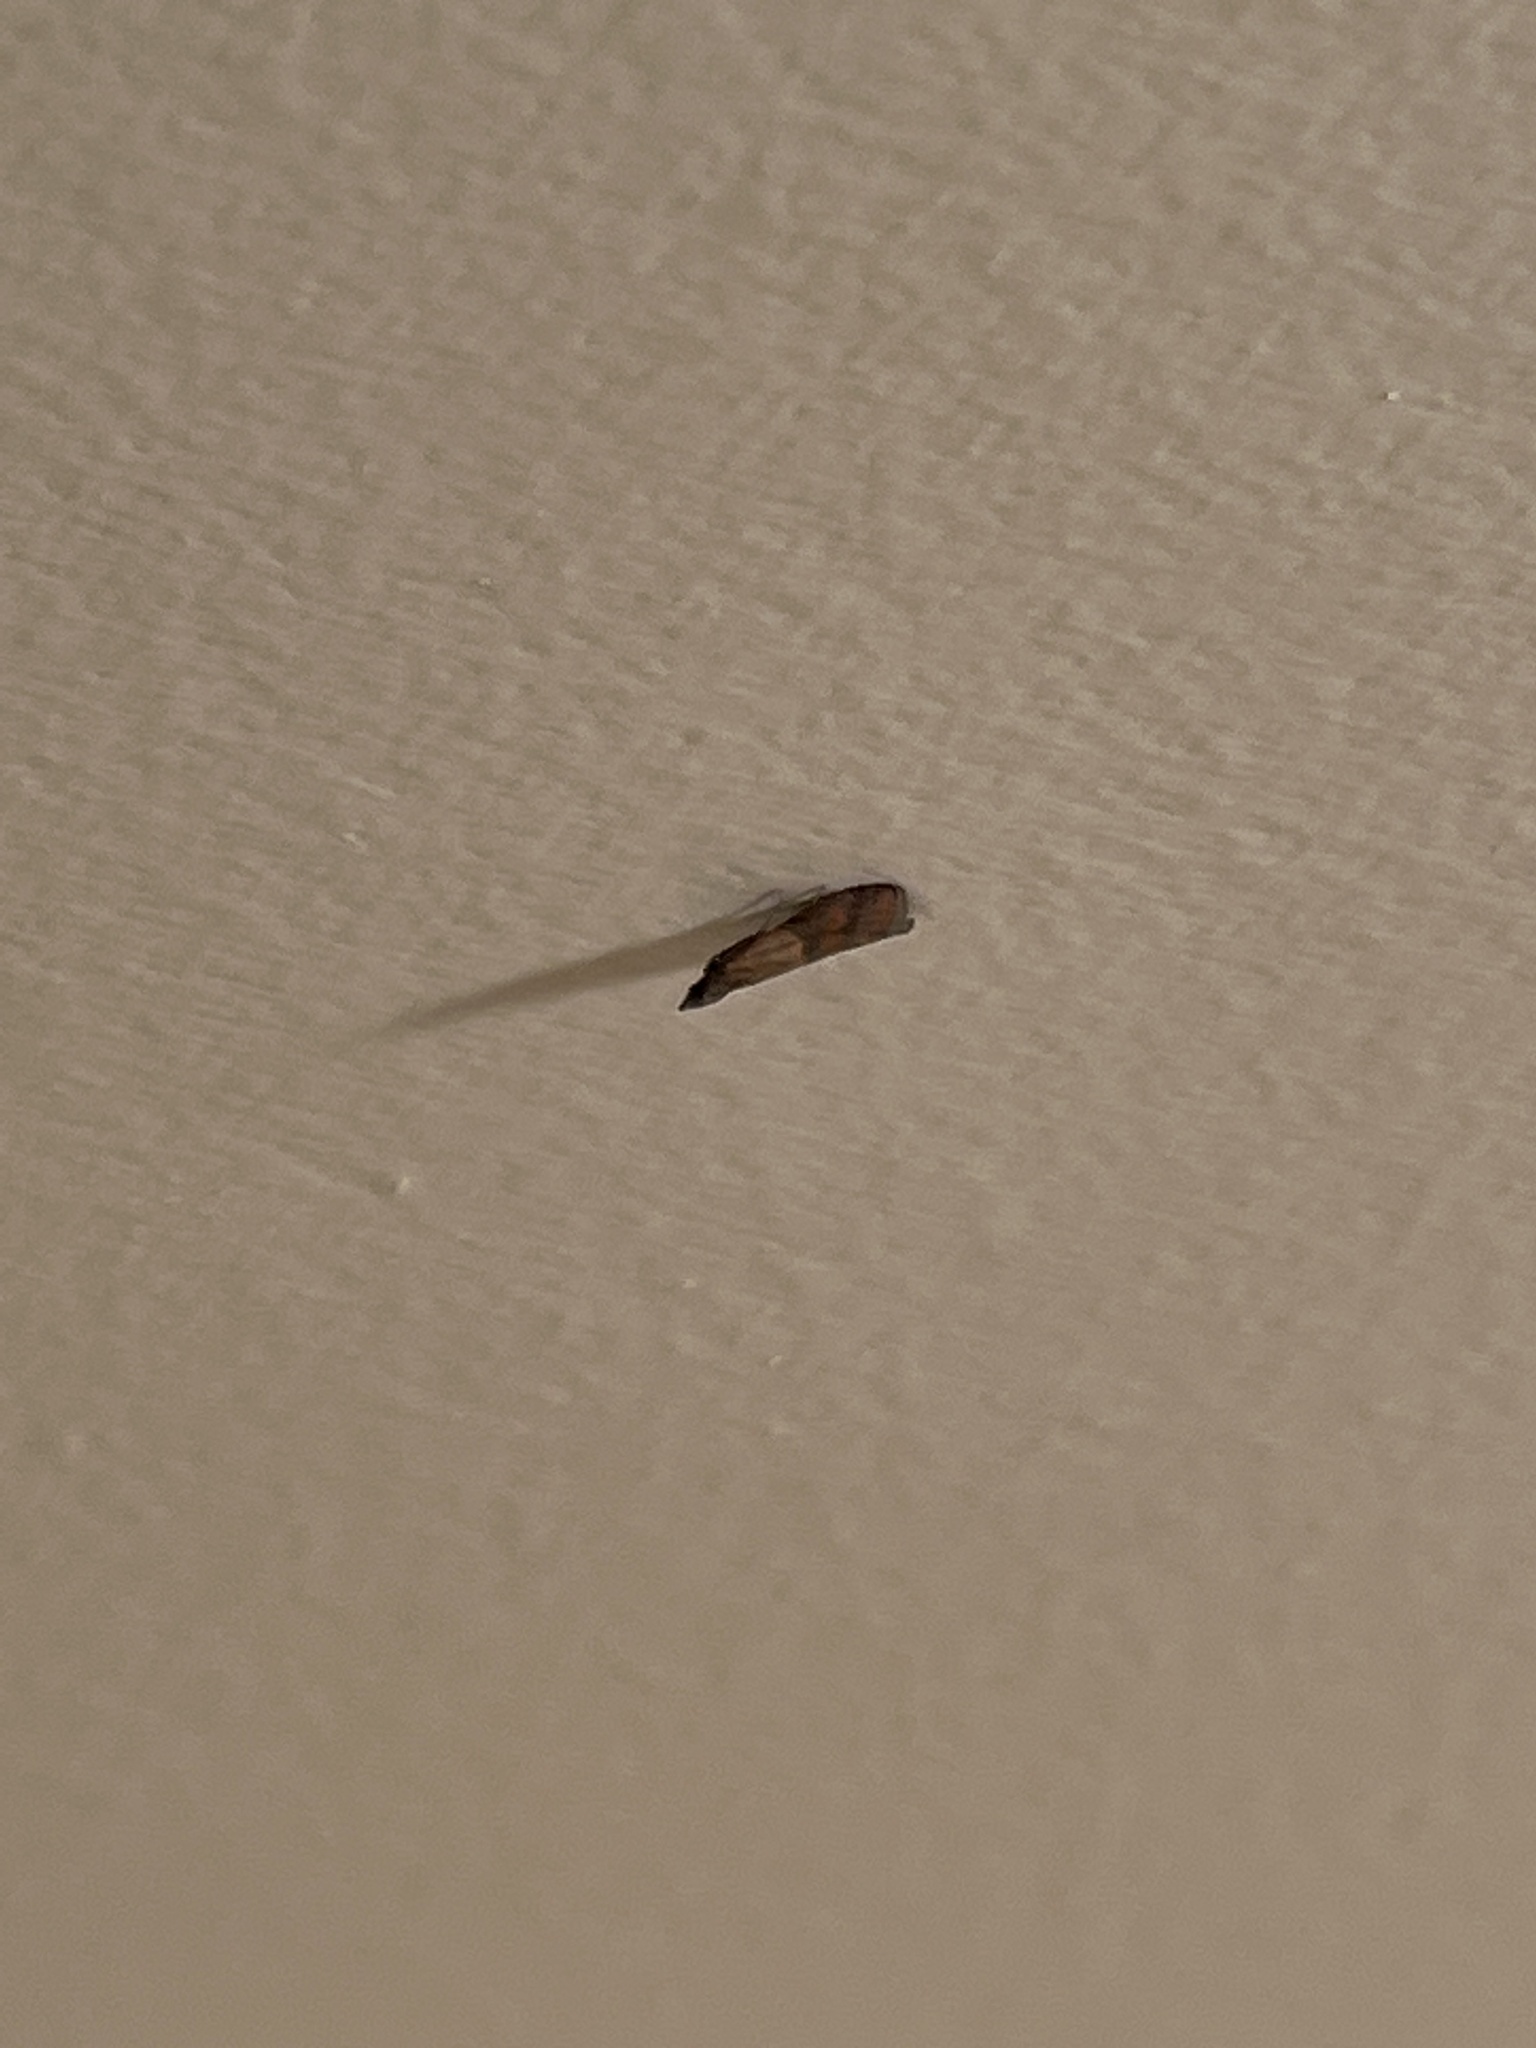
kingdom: Animalia
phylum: Arthropoda
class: Insecta
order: Lepidoptera
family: Pyralidae
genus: Plodia
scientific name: Plodia interpunctella
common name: Indian meal moth
